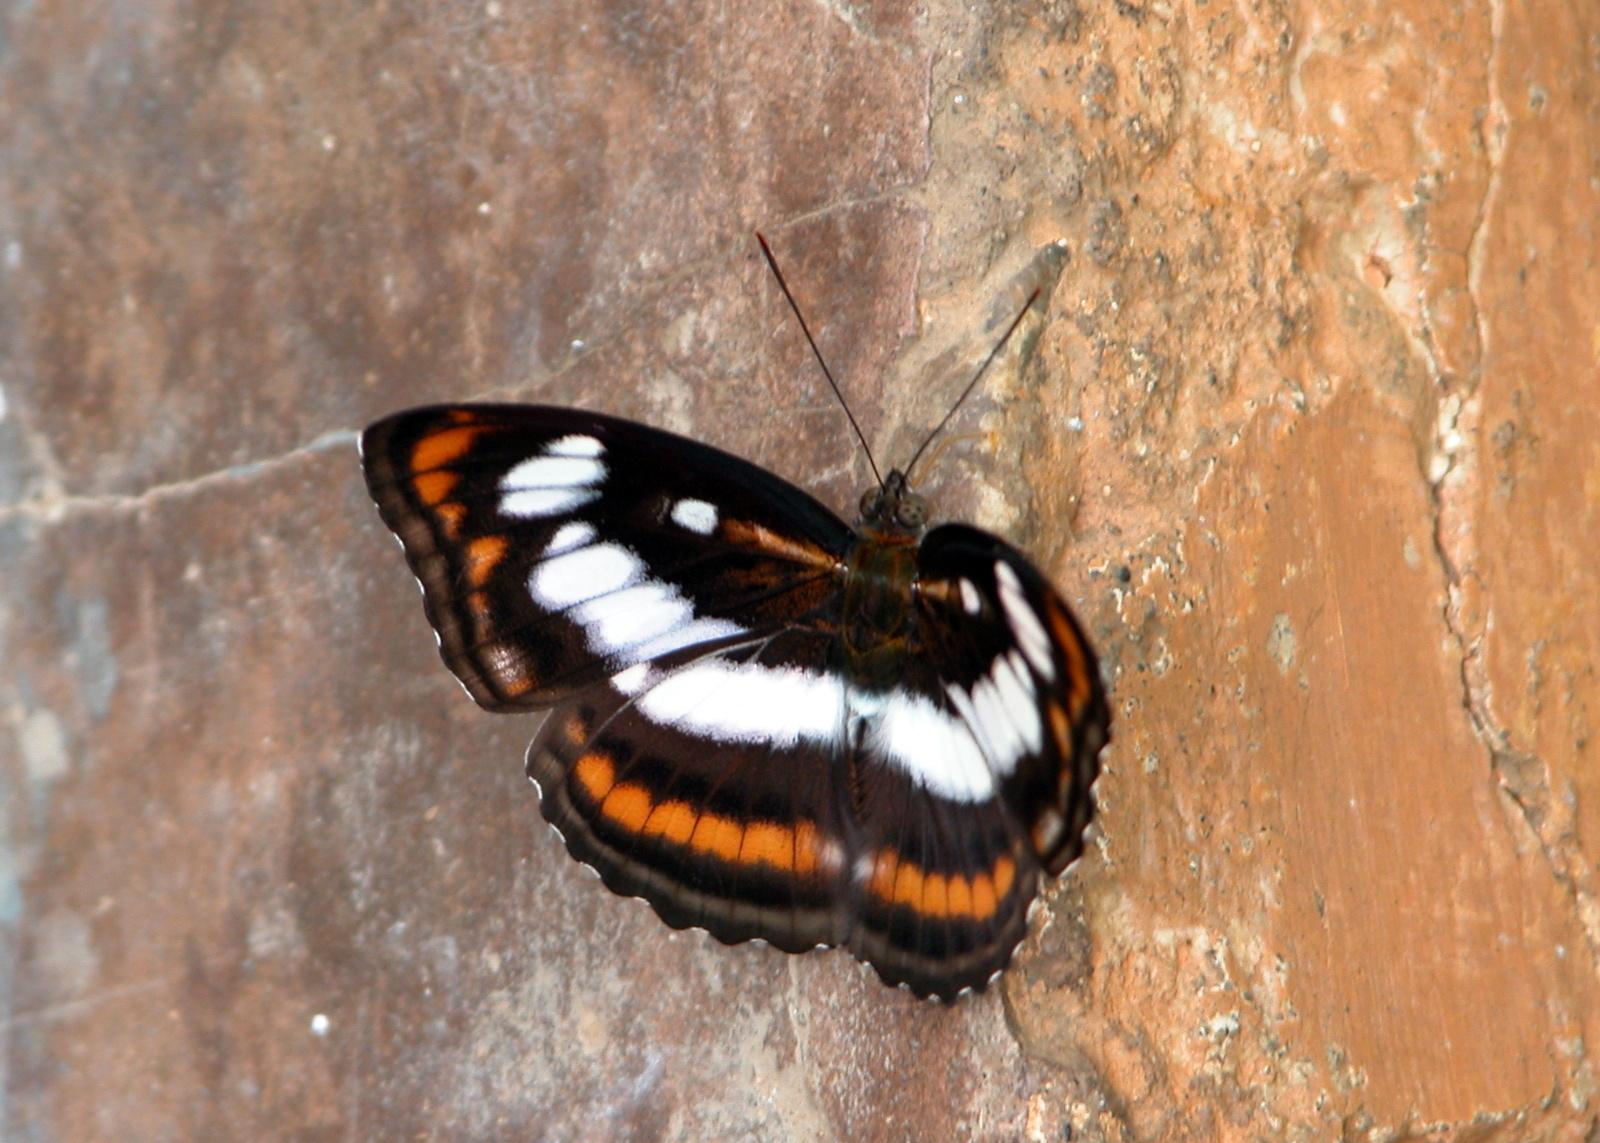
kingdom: Animalia
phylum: Arthropoda
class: Insecta
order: Lepidoptera
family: Nymphalidae
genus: Parathyma
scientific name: Parathyma nefte
